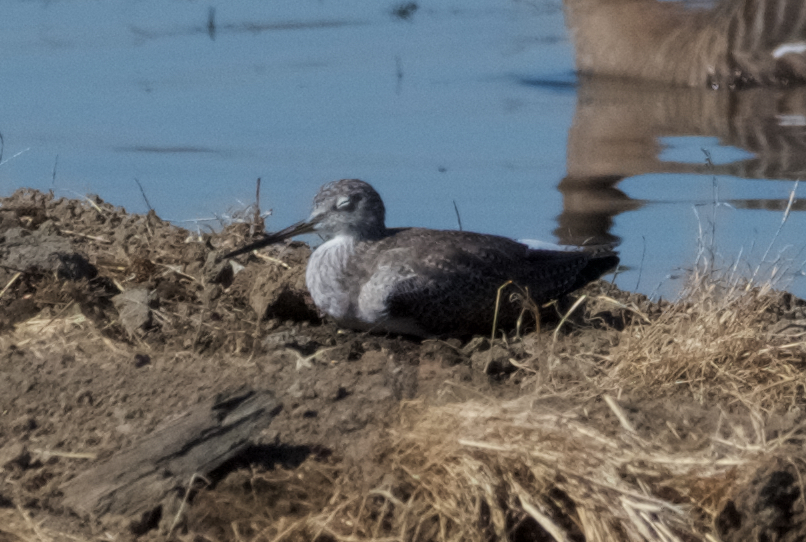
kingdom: Animalia
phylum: Chordata
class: Aves
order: Charadriiformes
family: Scolopacidae
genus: Tringa
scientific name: Tringa melanoleuca
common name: Greater yellowlegs
